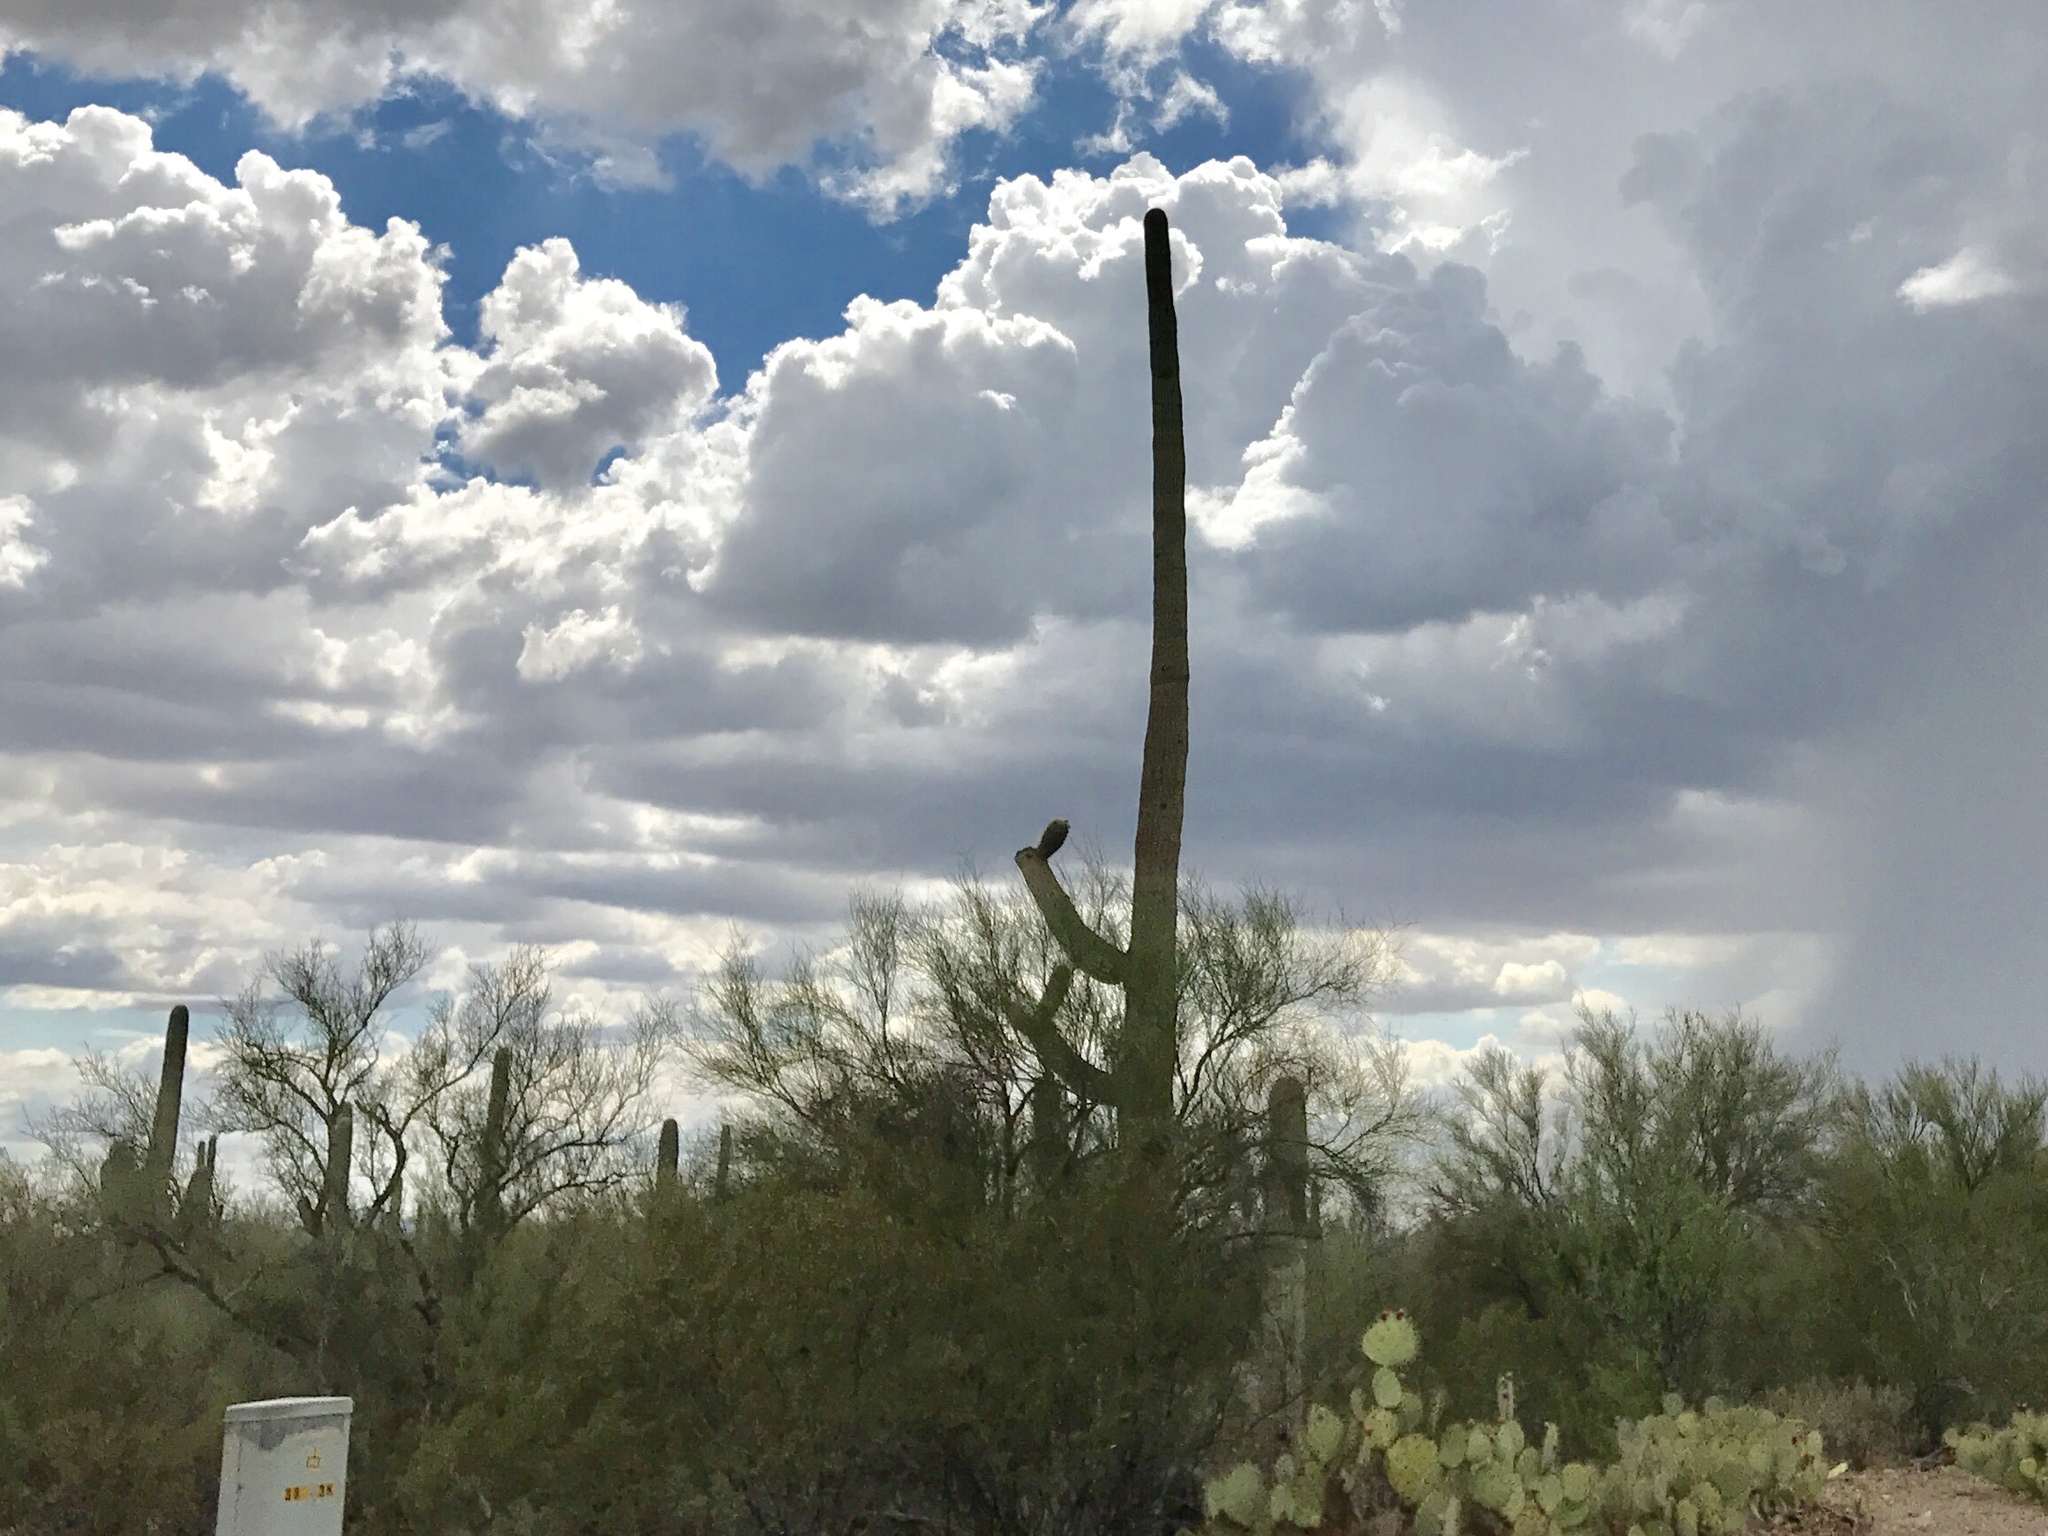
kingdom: Plantae
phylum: Tracheophyta
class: Magnoliopsida
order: Caryophyllales
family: Cactaceae
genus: Carnegiea
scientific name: Carnegiea gigantea
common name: Saguaro
